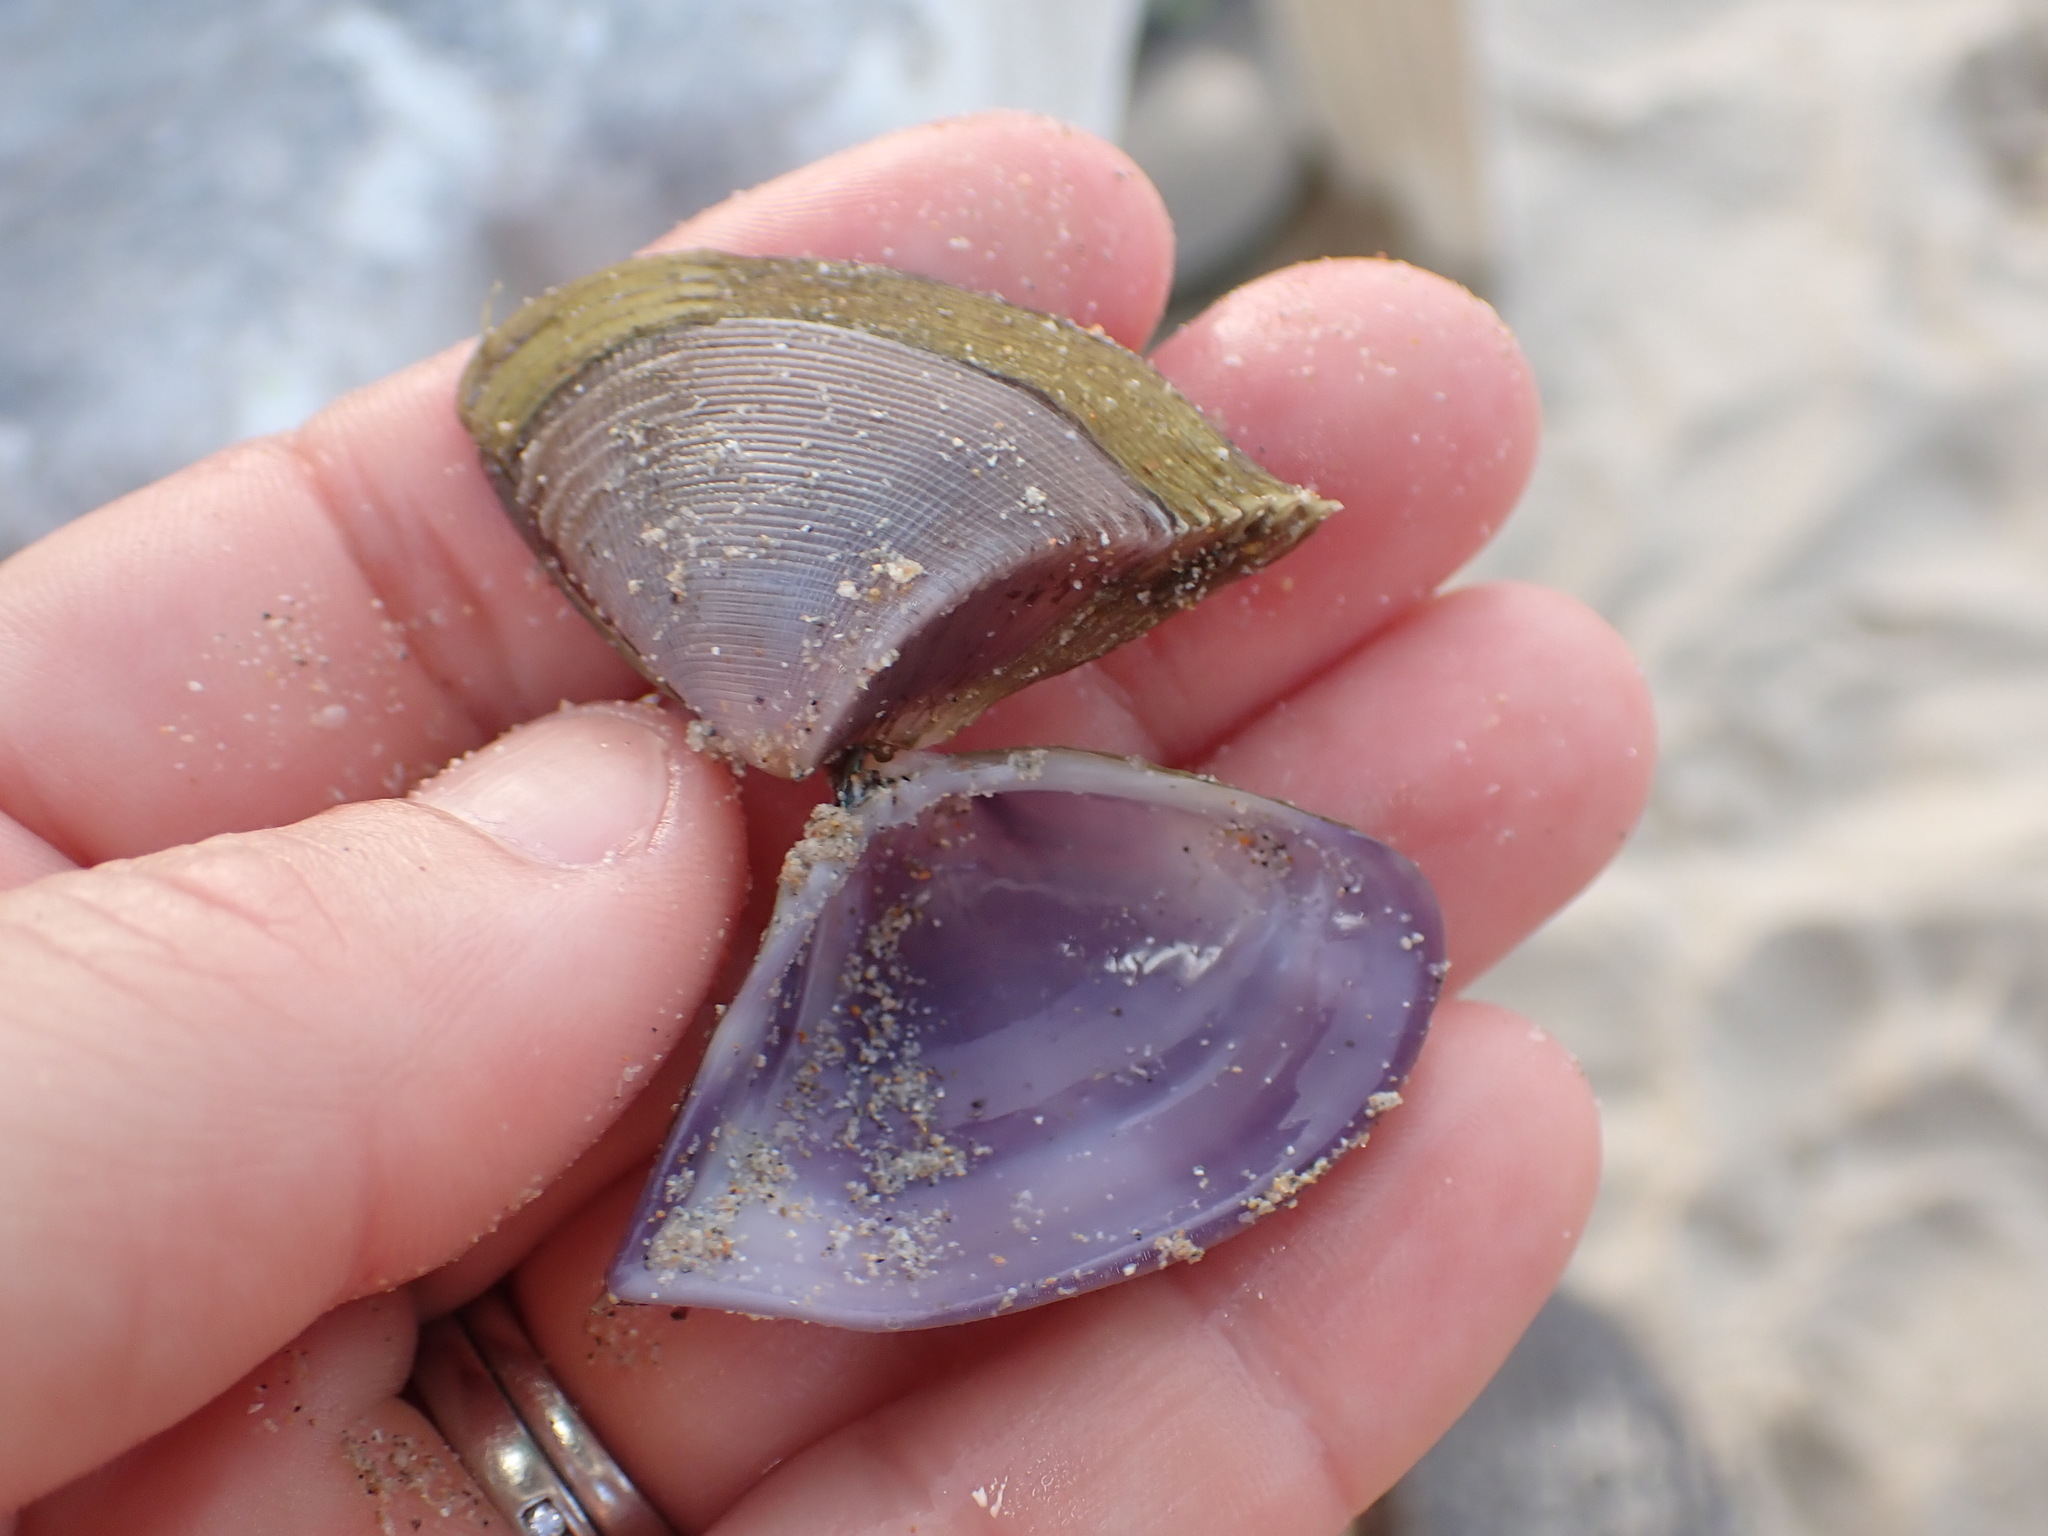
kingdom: Animalia
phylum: Mollusca
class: Bivalvia
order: Cardiida
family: Donacidae
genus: Hecuba
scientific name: Hecuba scortum
